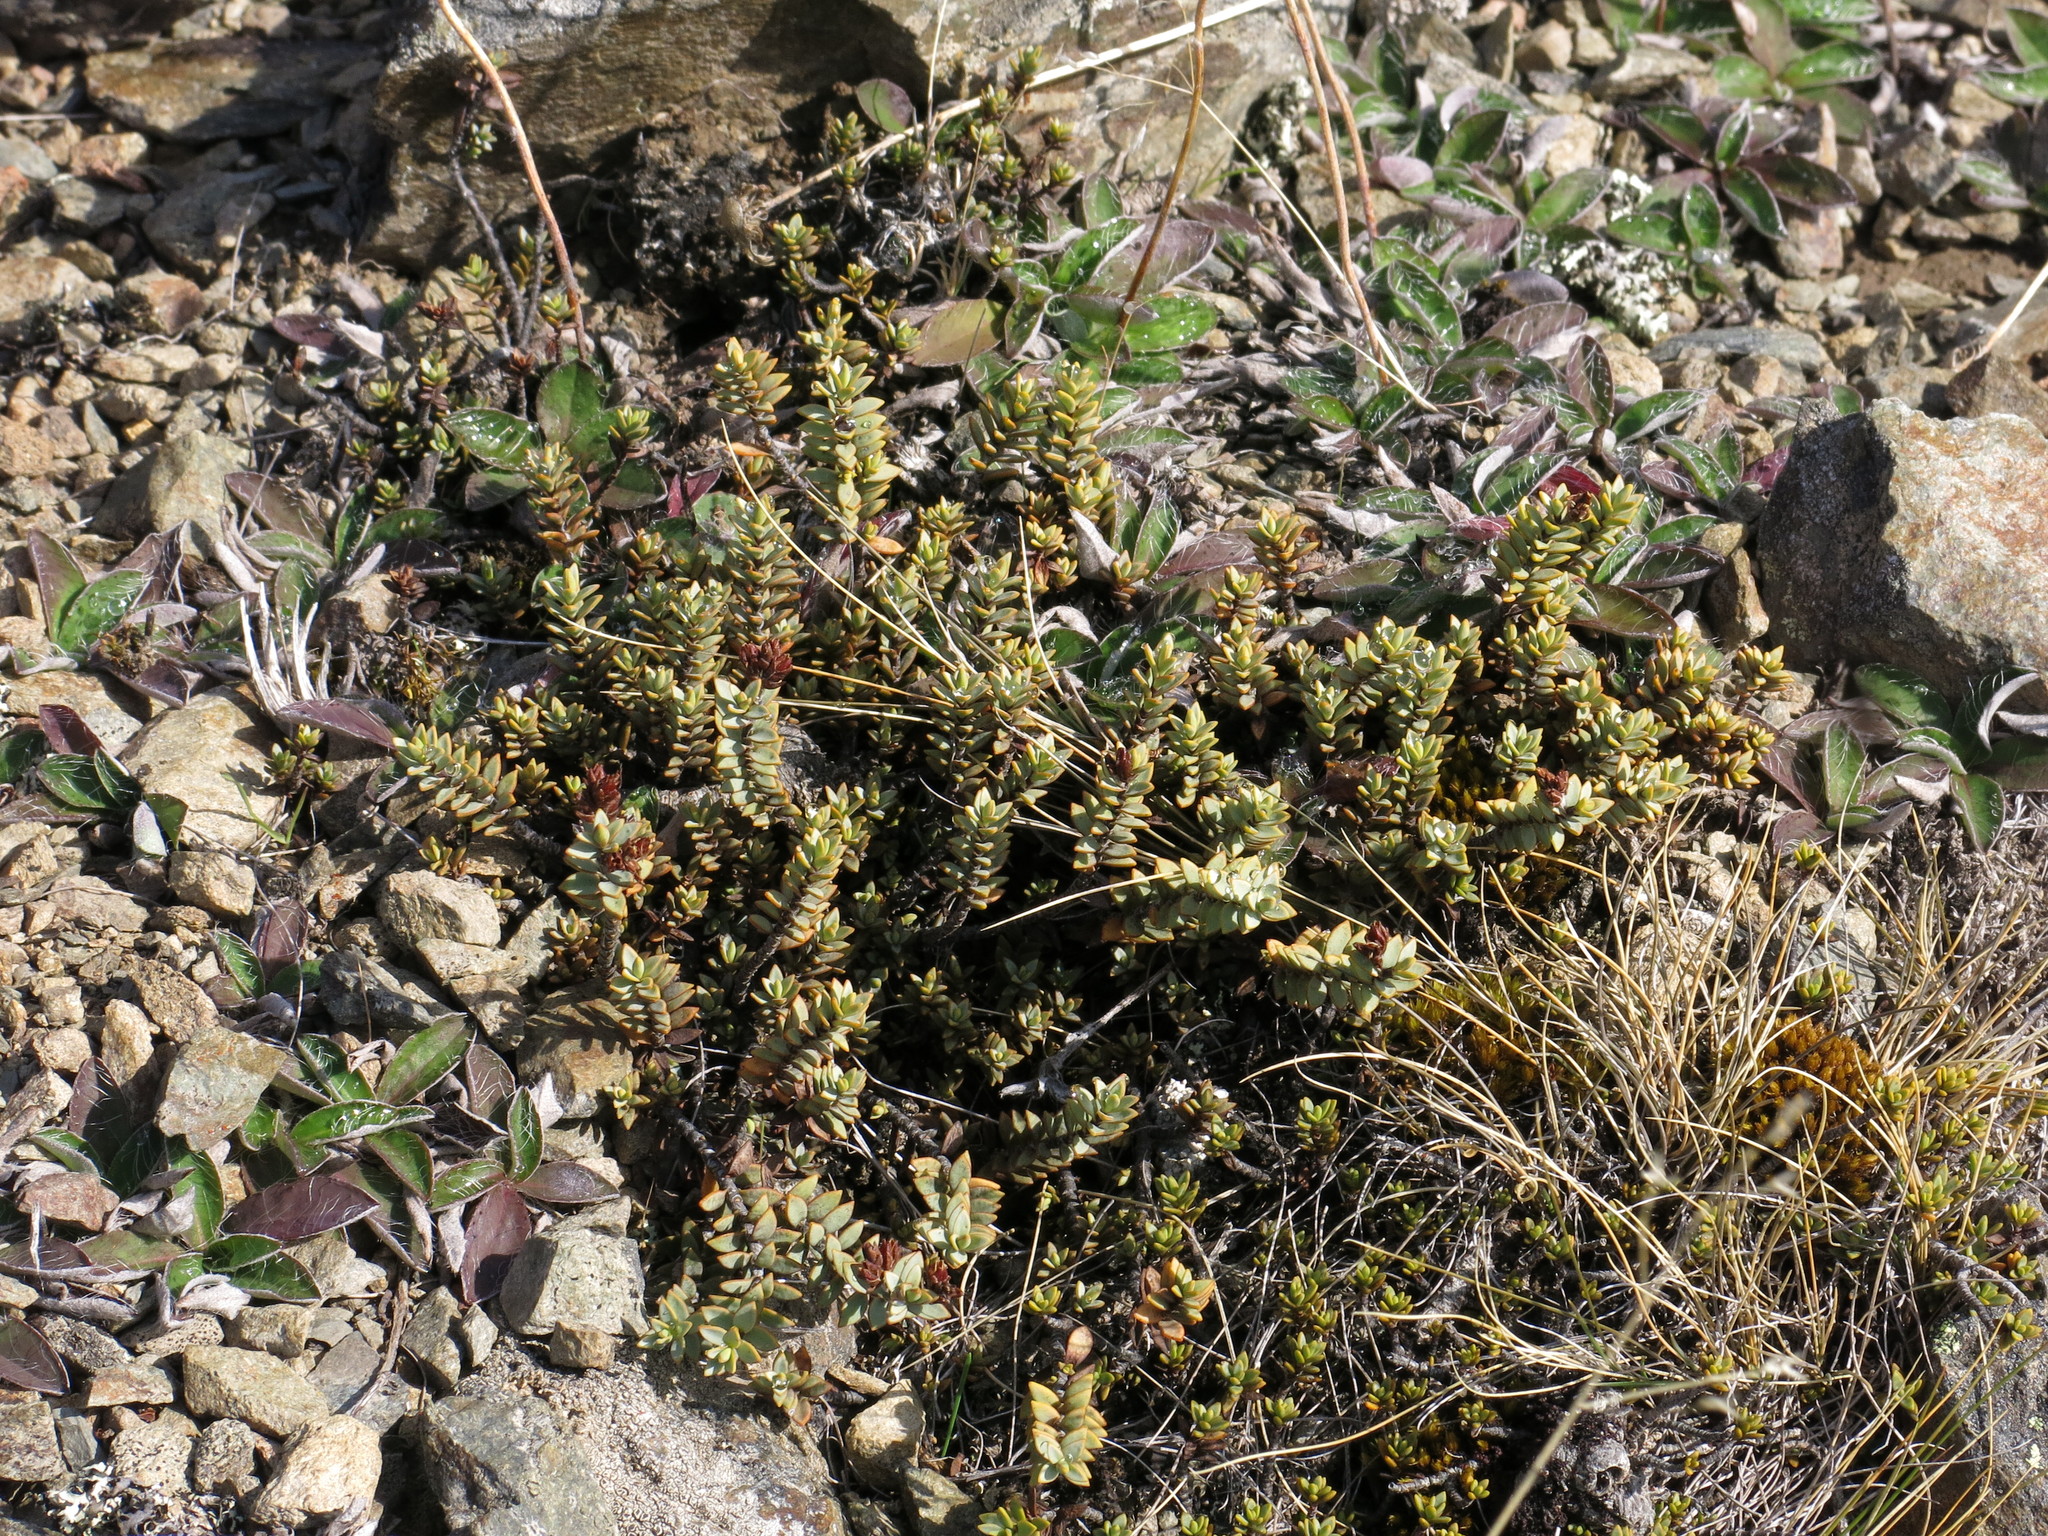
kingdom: Plantae
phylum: Tracheophyta
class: Magnoliopsida
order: Lamiales
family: Plantaginaceae
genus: Veronica
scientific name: Veronica pimeleoides
